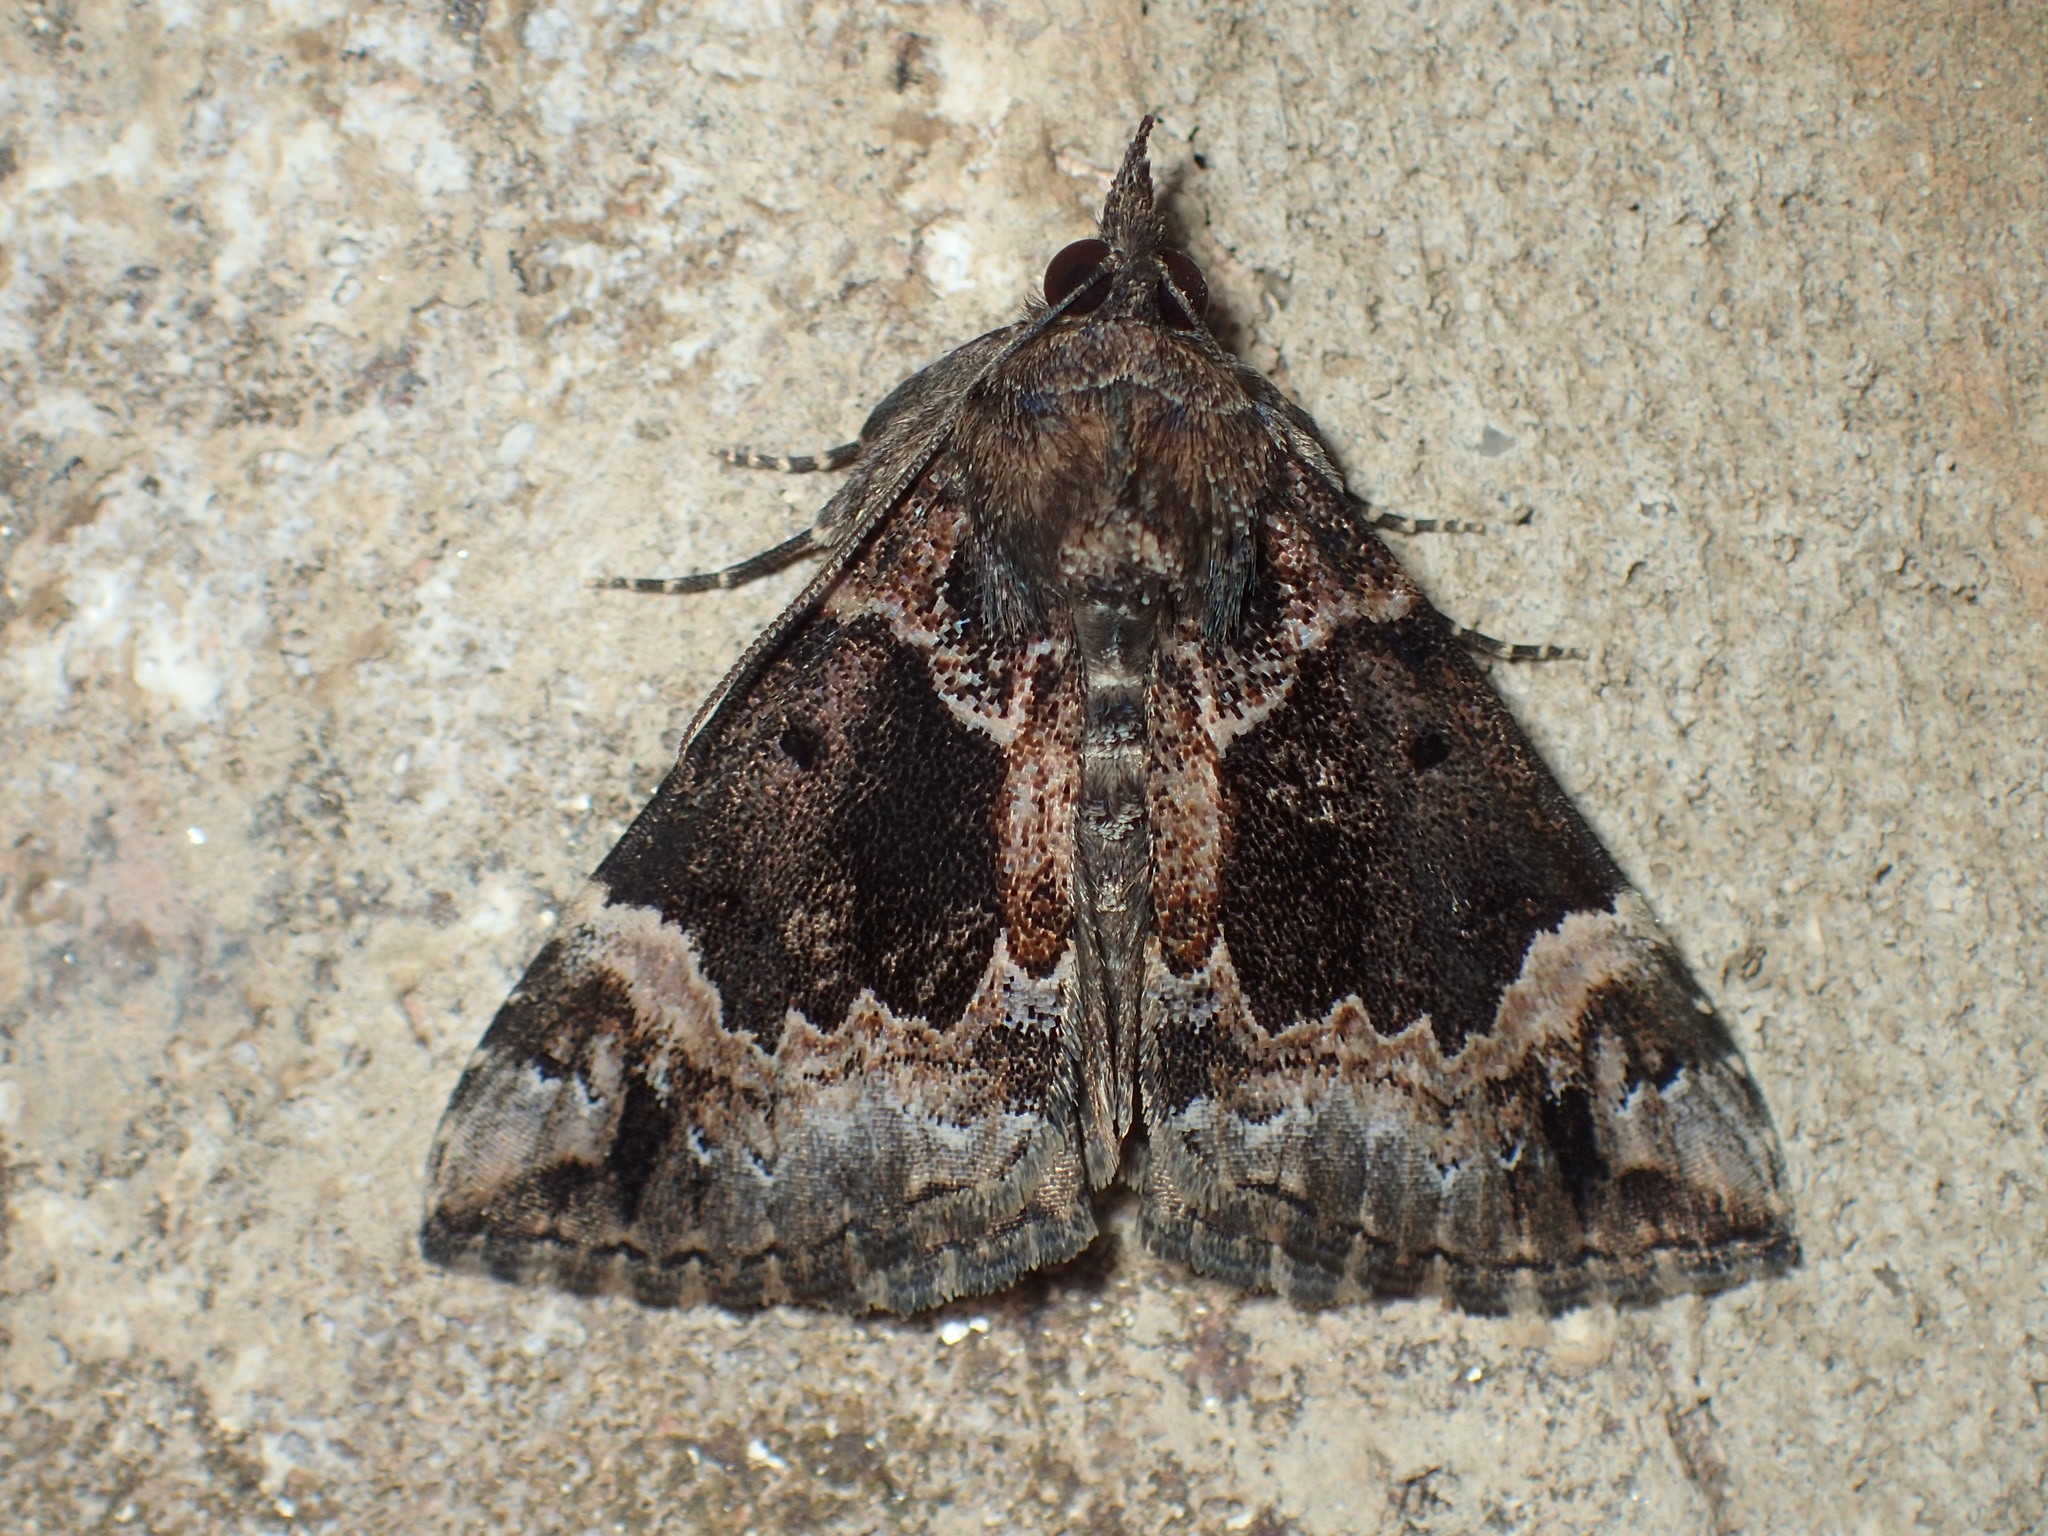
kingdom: Animalia
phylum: Arthropoda
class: Insecta
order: Lepidoptera
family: Erebidae
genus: Hypena
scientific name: Hypena palparia
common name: Mottled bomolocha moth
